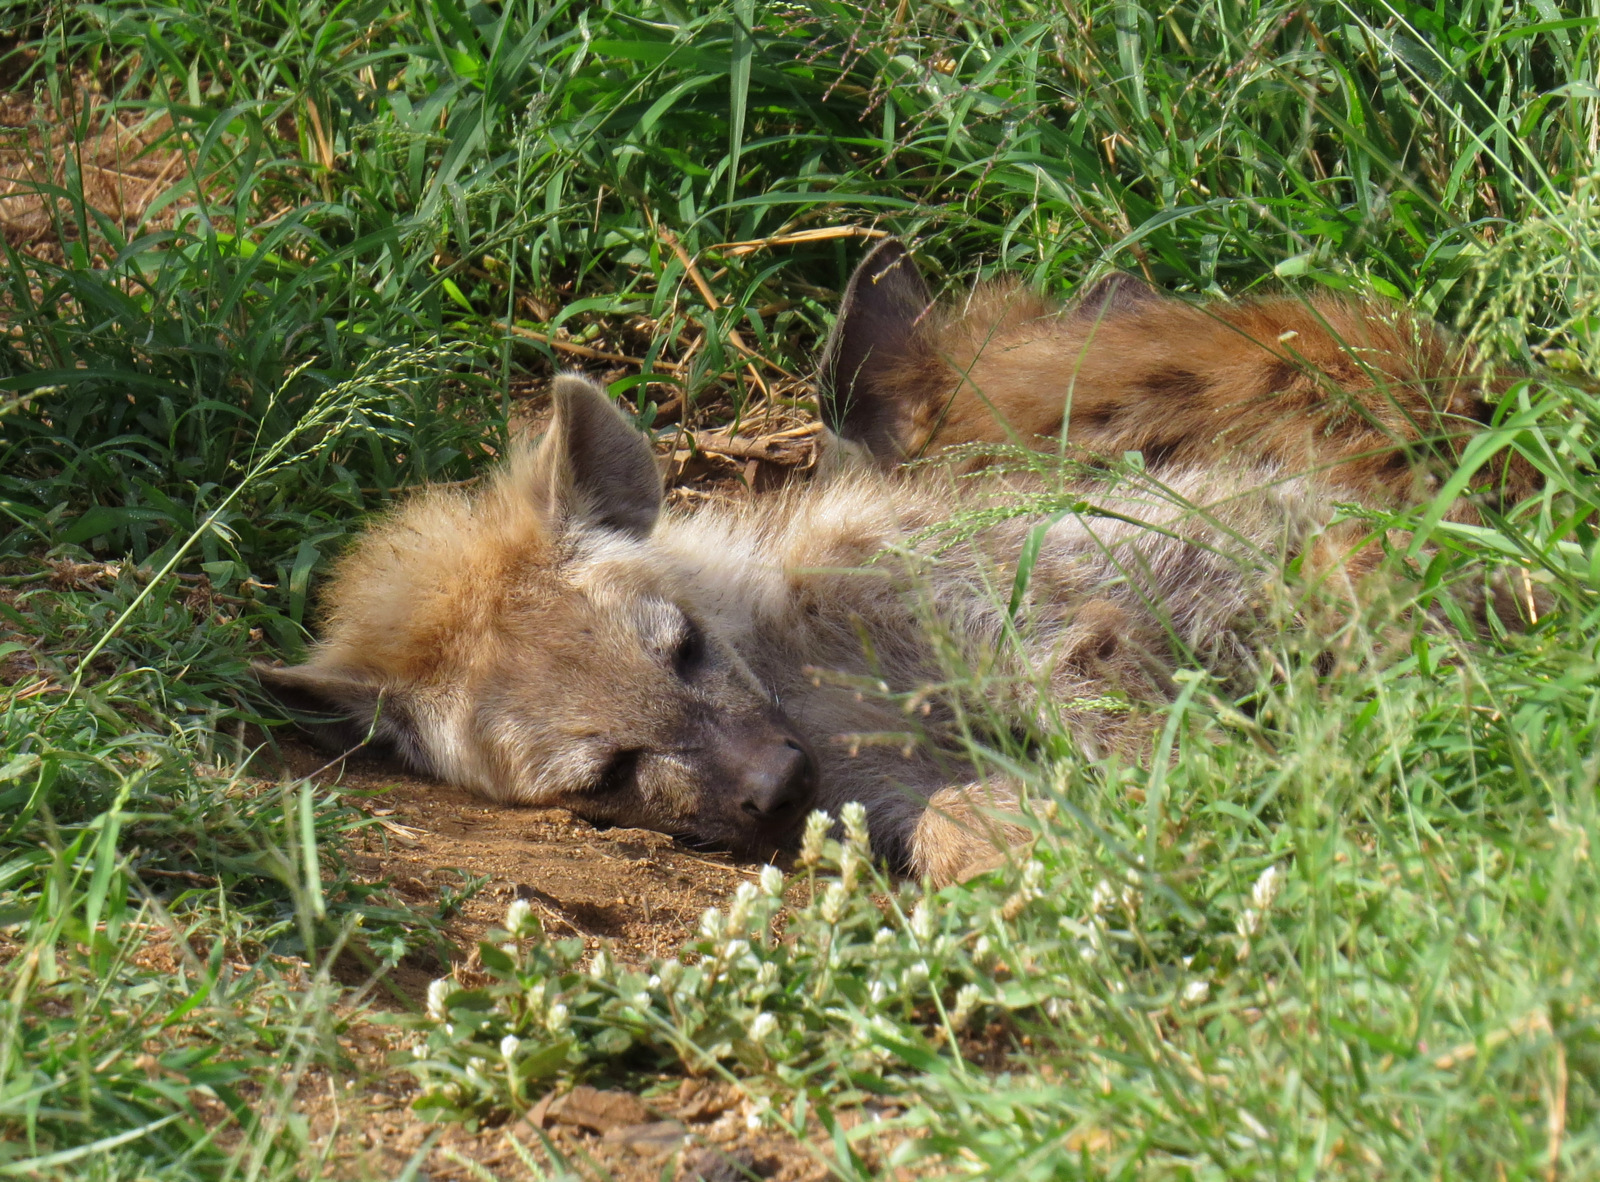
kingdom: Animalia
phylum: Chordata
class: Mammalia
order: Carnivora
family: Hyaenidae
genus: Crocuta
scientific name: Crocuta crocuta
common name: Spotted hyaena
